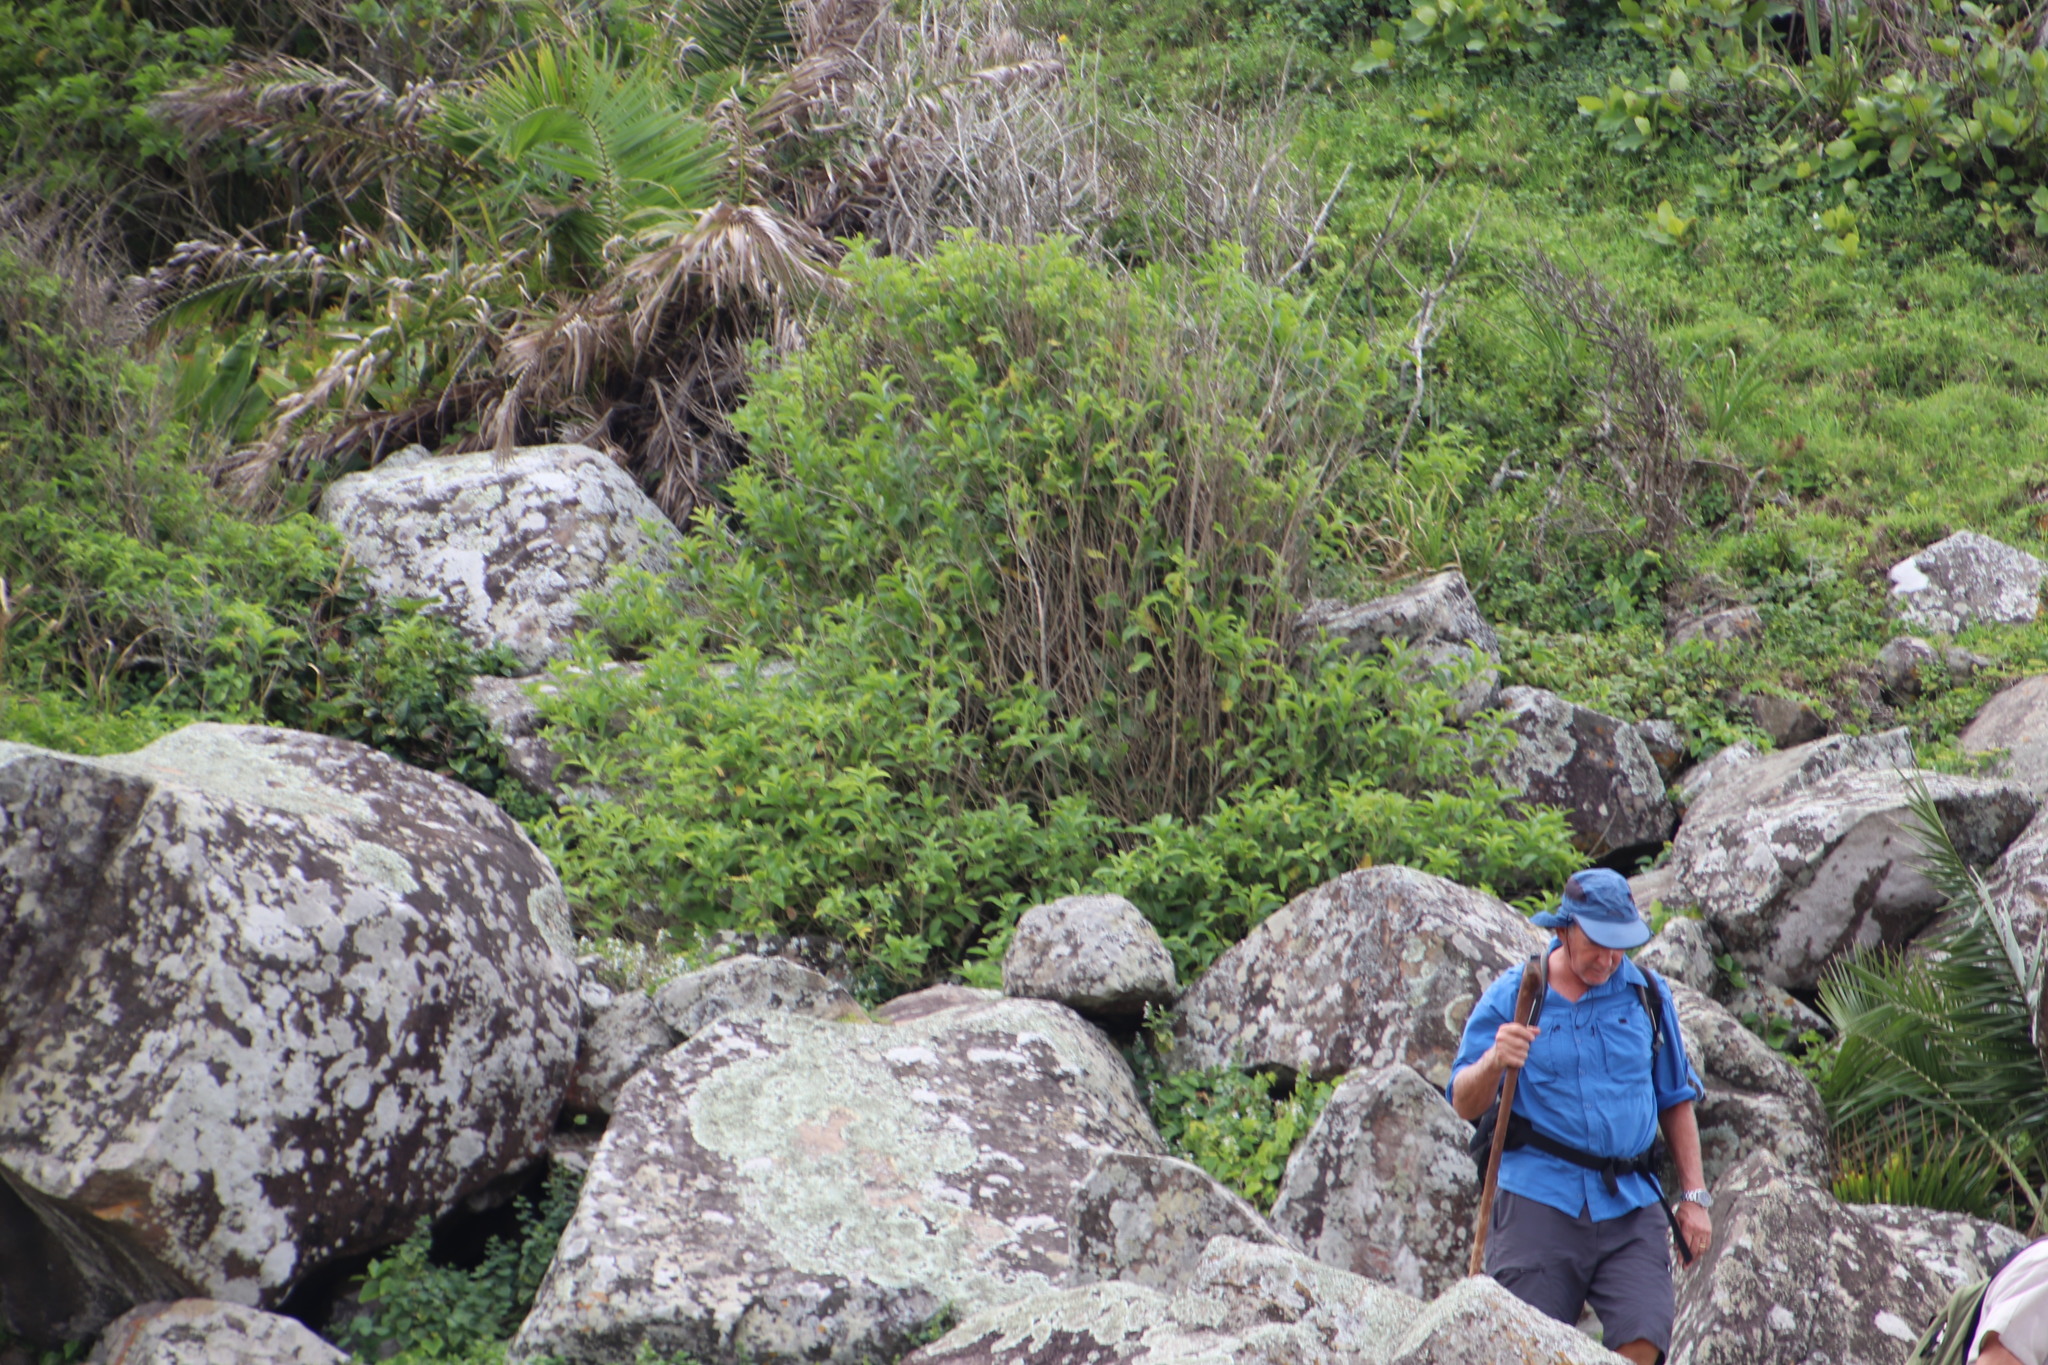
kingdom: Plantae
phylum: Tracheophyta
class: Magnoliopsida
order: Solanales
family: Solanaceae
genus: Cestrum
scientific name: Cestrum laevigatum
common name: Inkberry
